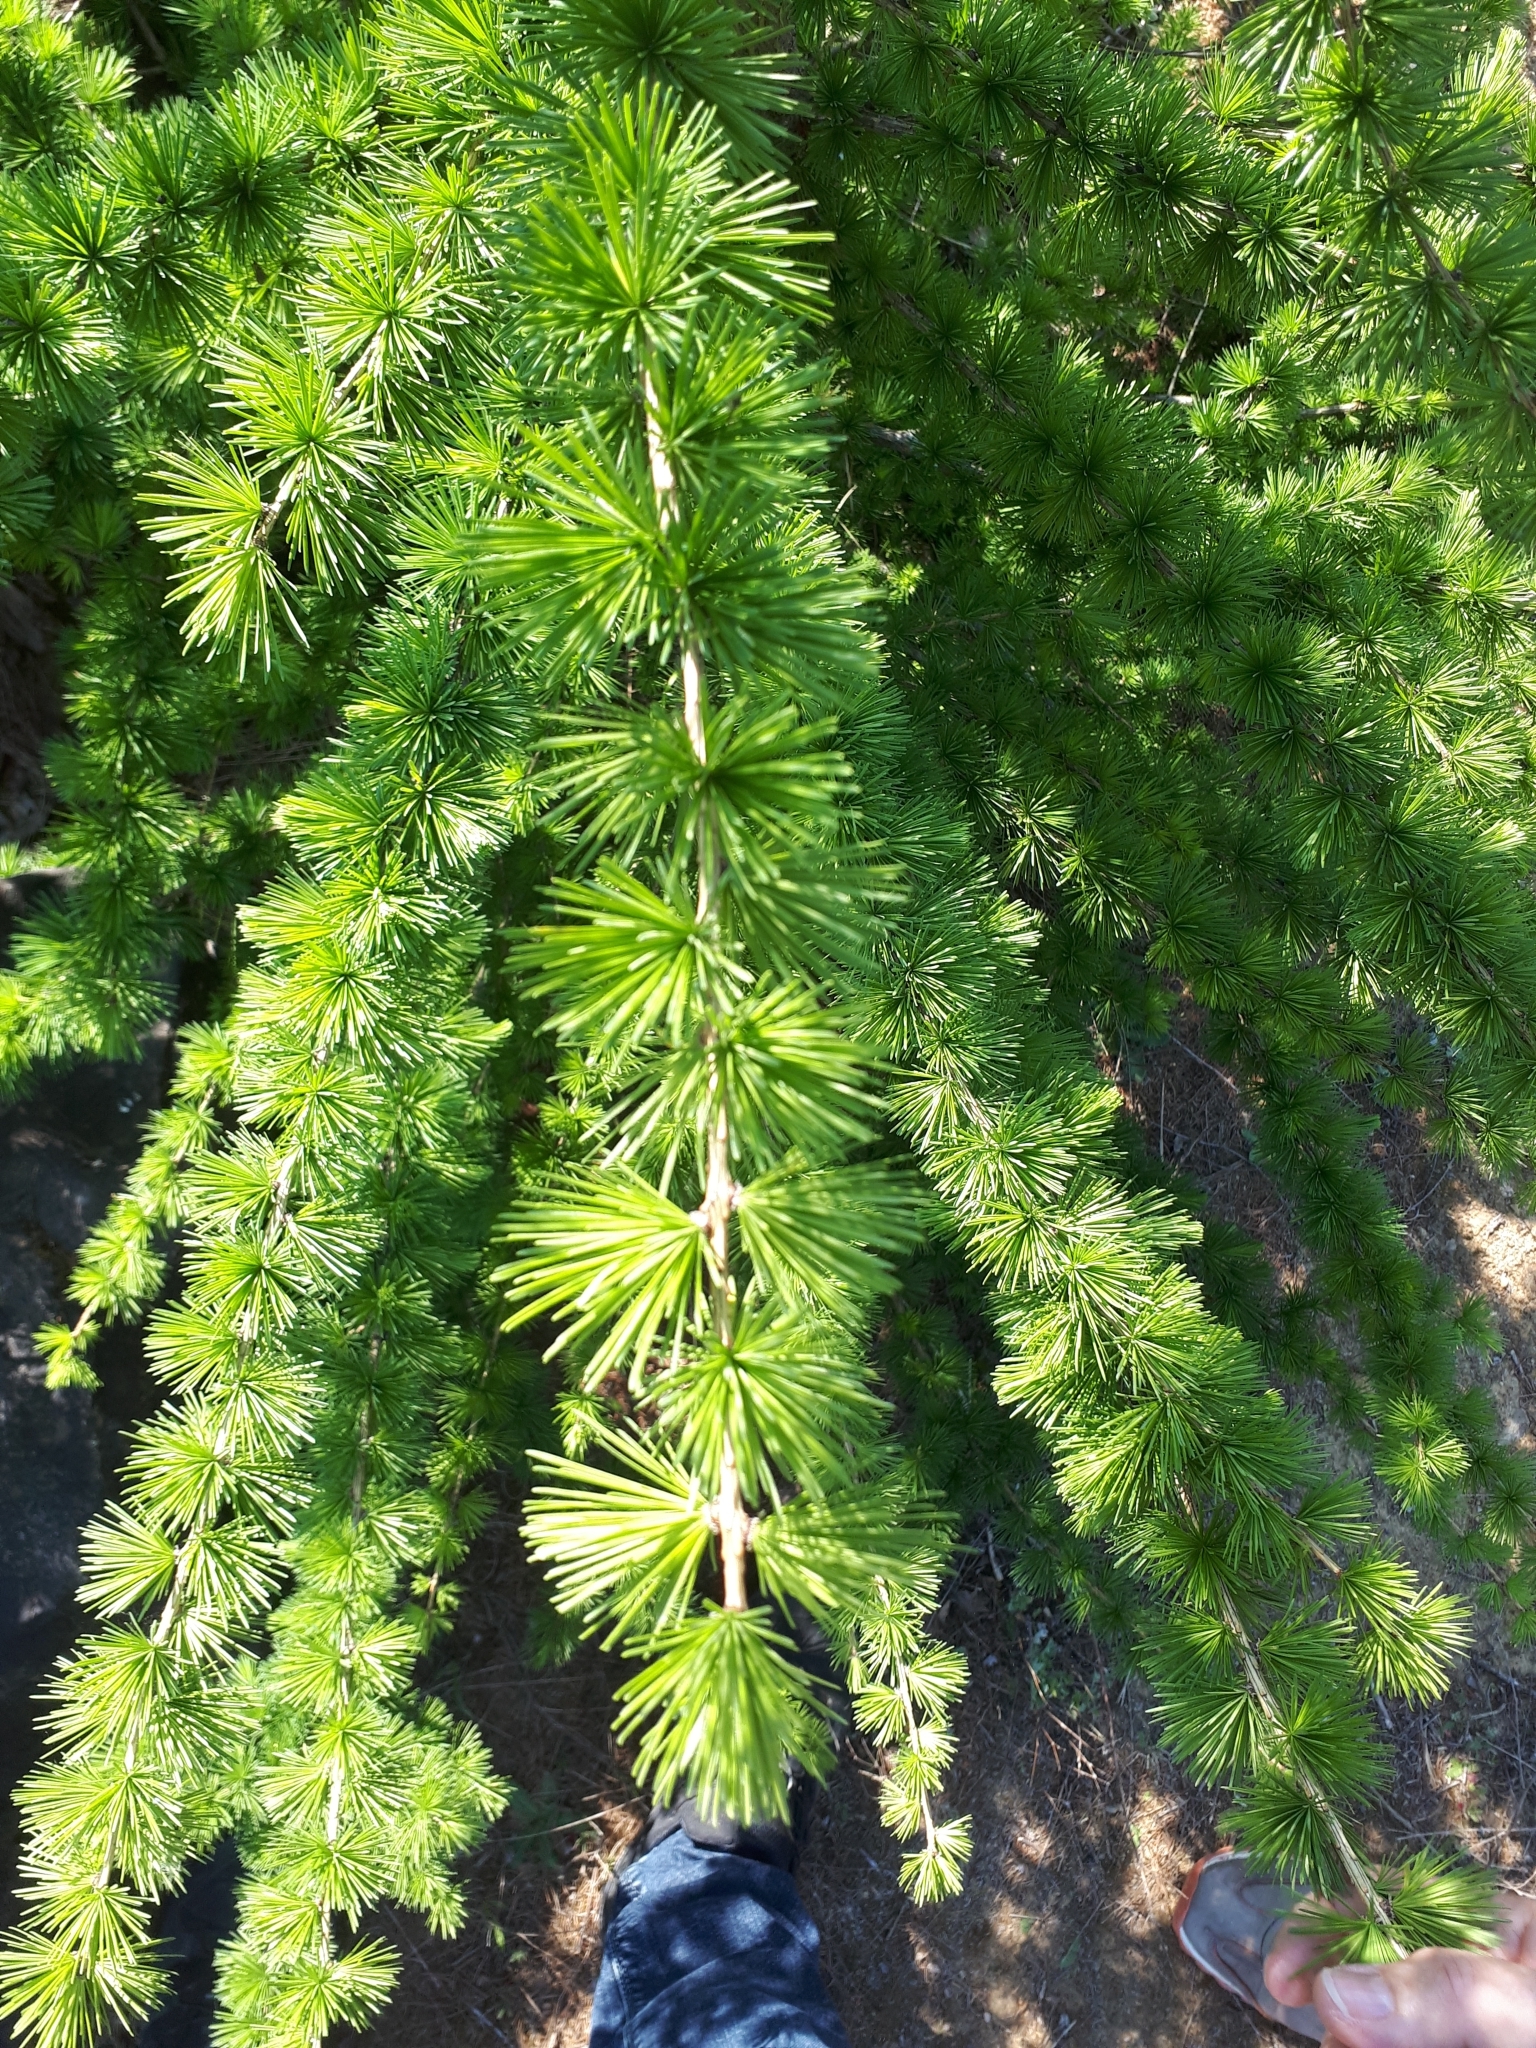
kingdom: Plantae
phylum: Tracheophyta
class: Pinopsida
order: Pinales
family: Pinaceae
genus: Larix
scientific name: Larix decidua
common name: European larch
